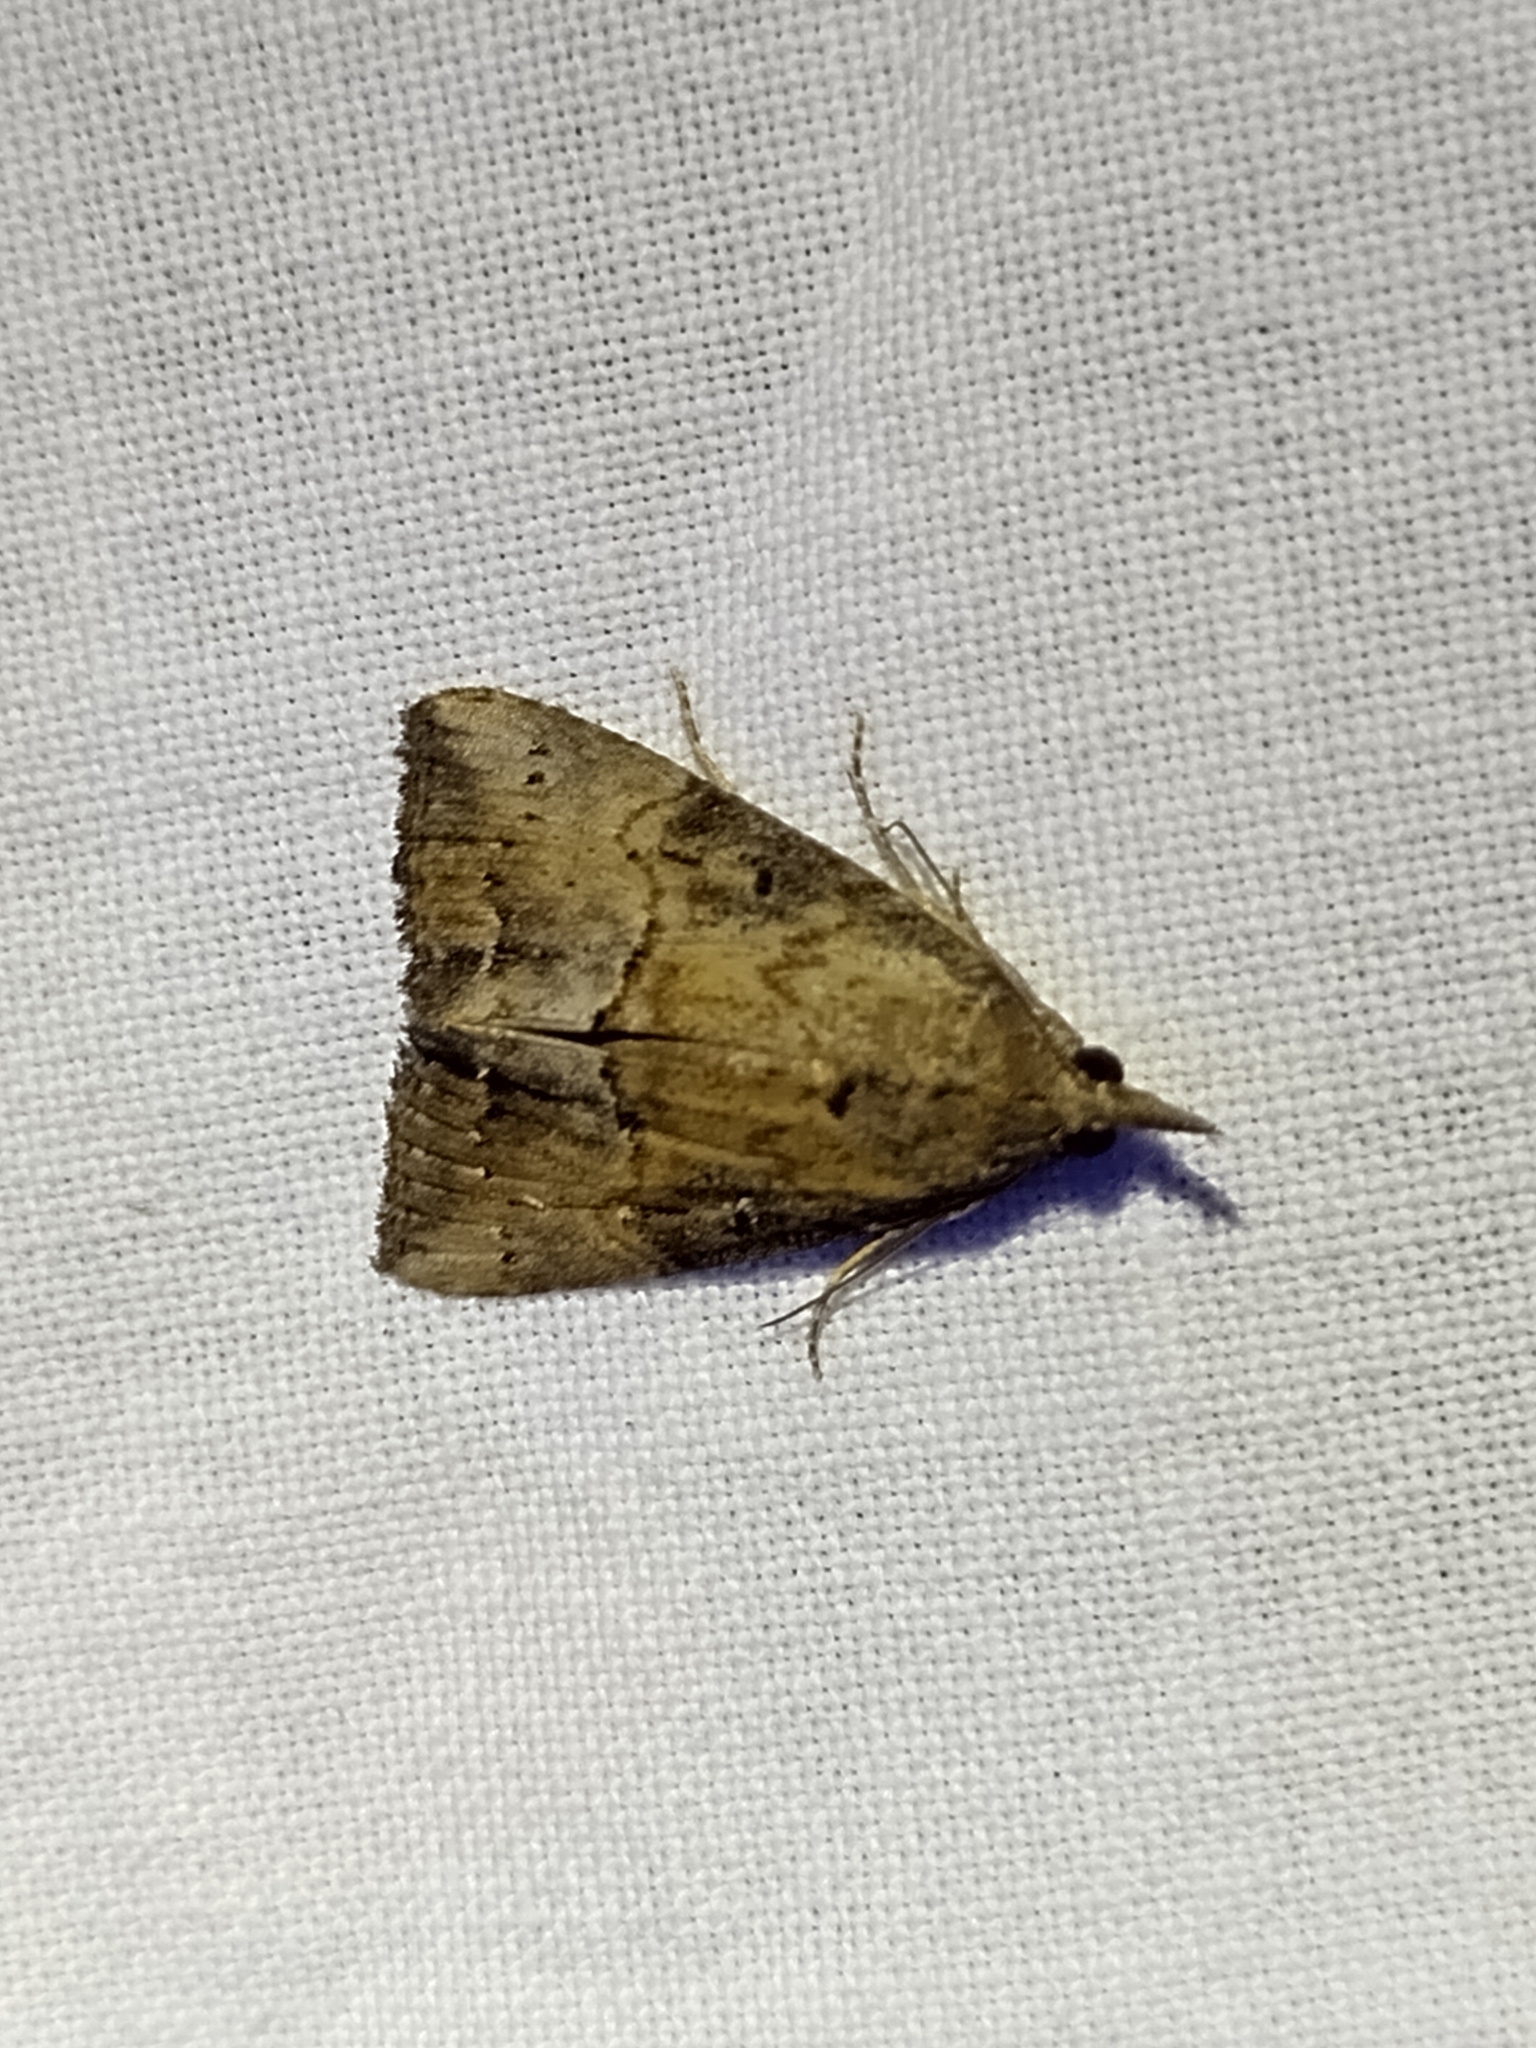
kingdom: Animalia
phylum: Arthropoda
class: Insecta
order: Lepidoptera
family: Erebidae
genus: Hypena
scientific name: Hypena scabra
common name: Green cloverworm
